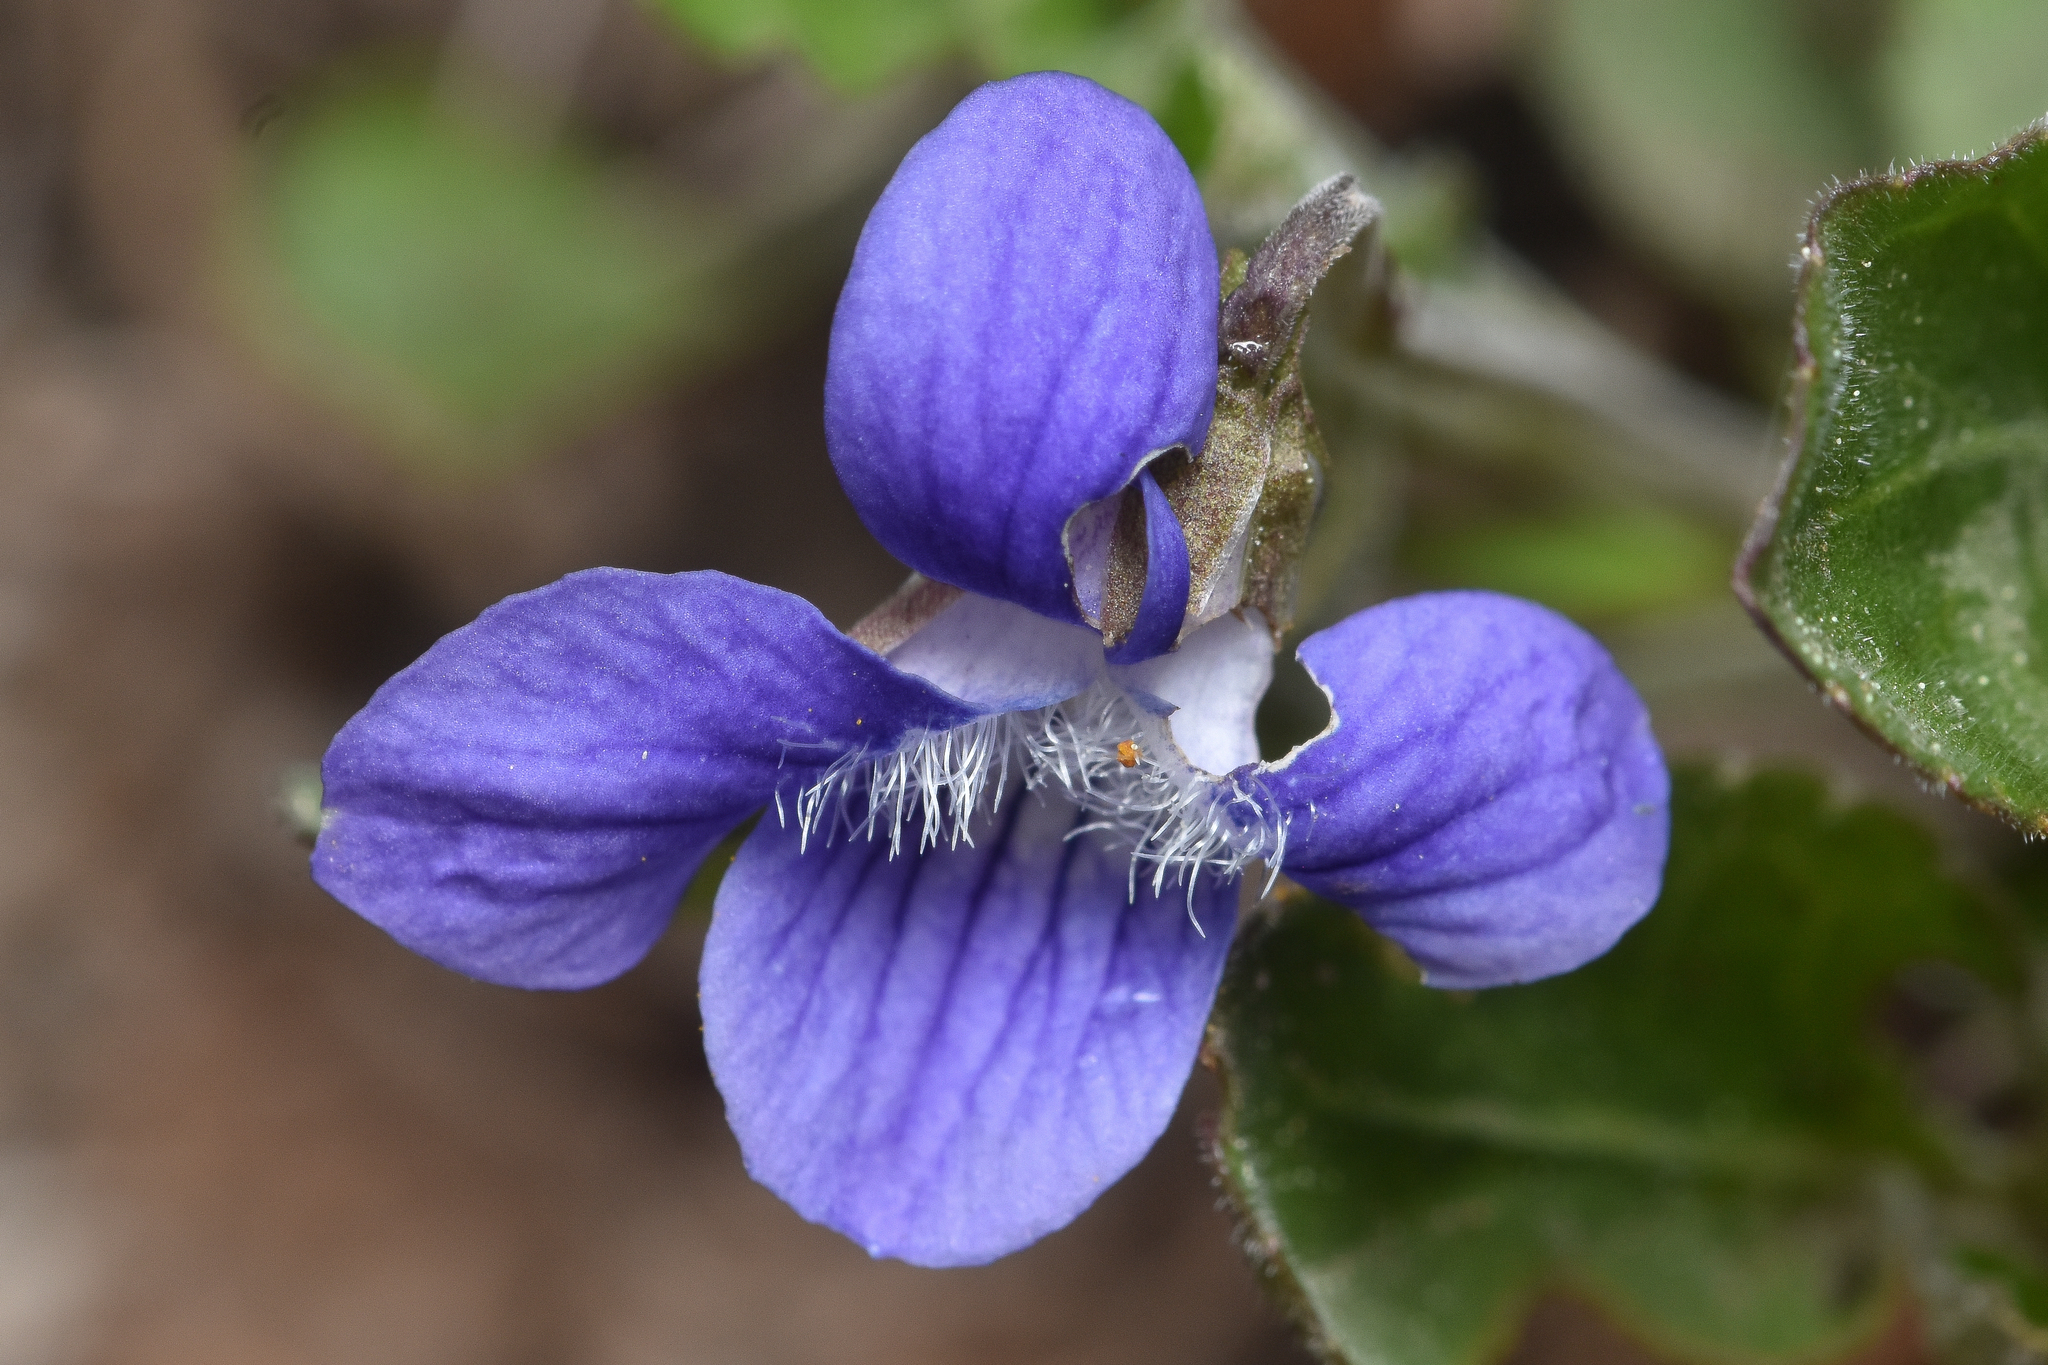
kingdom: Plantae
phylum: Tracheophyta
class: Magnoliopsida
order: Malpighiales
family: Violaceae
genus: Viola
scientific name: Viola adunca
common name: Sand violet
